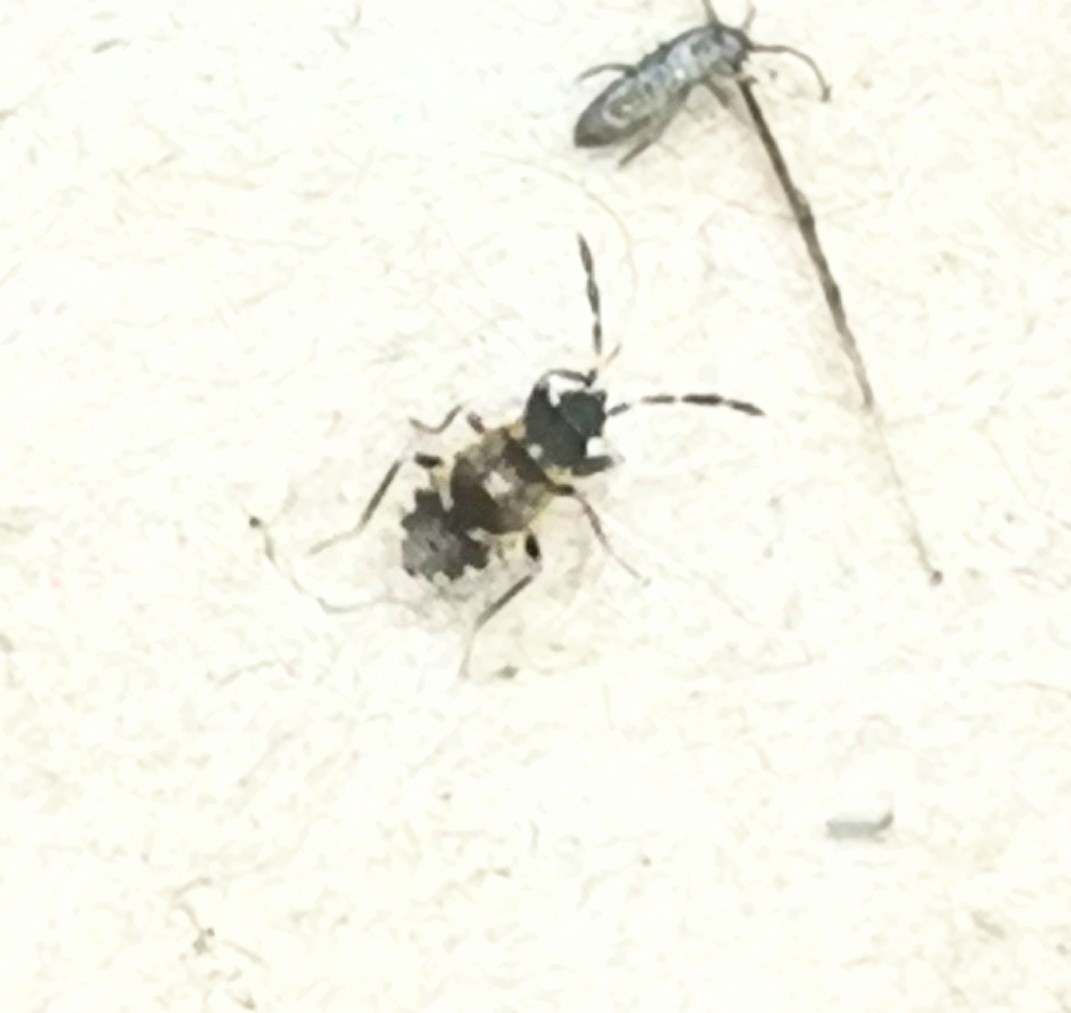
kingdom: Animalia
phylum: Arthropoda
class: Insecta
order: Hemiptera
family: Rhyparochromidae
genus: Scolopostethus
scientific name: Scolopostethus thomsoni
